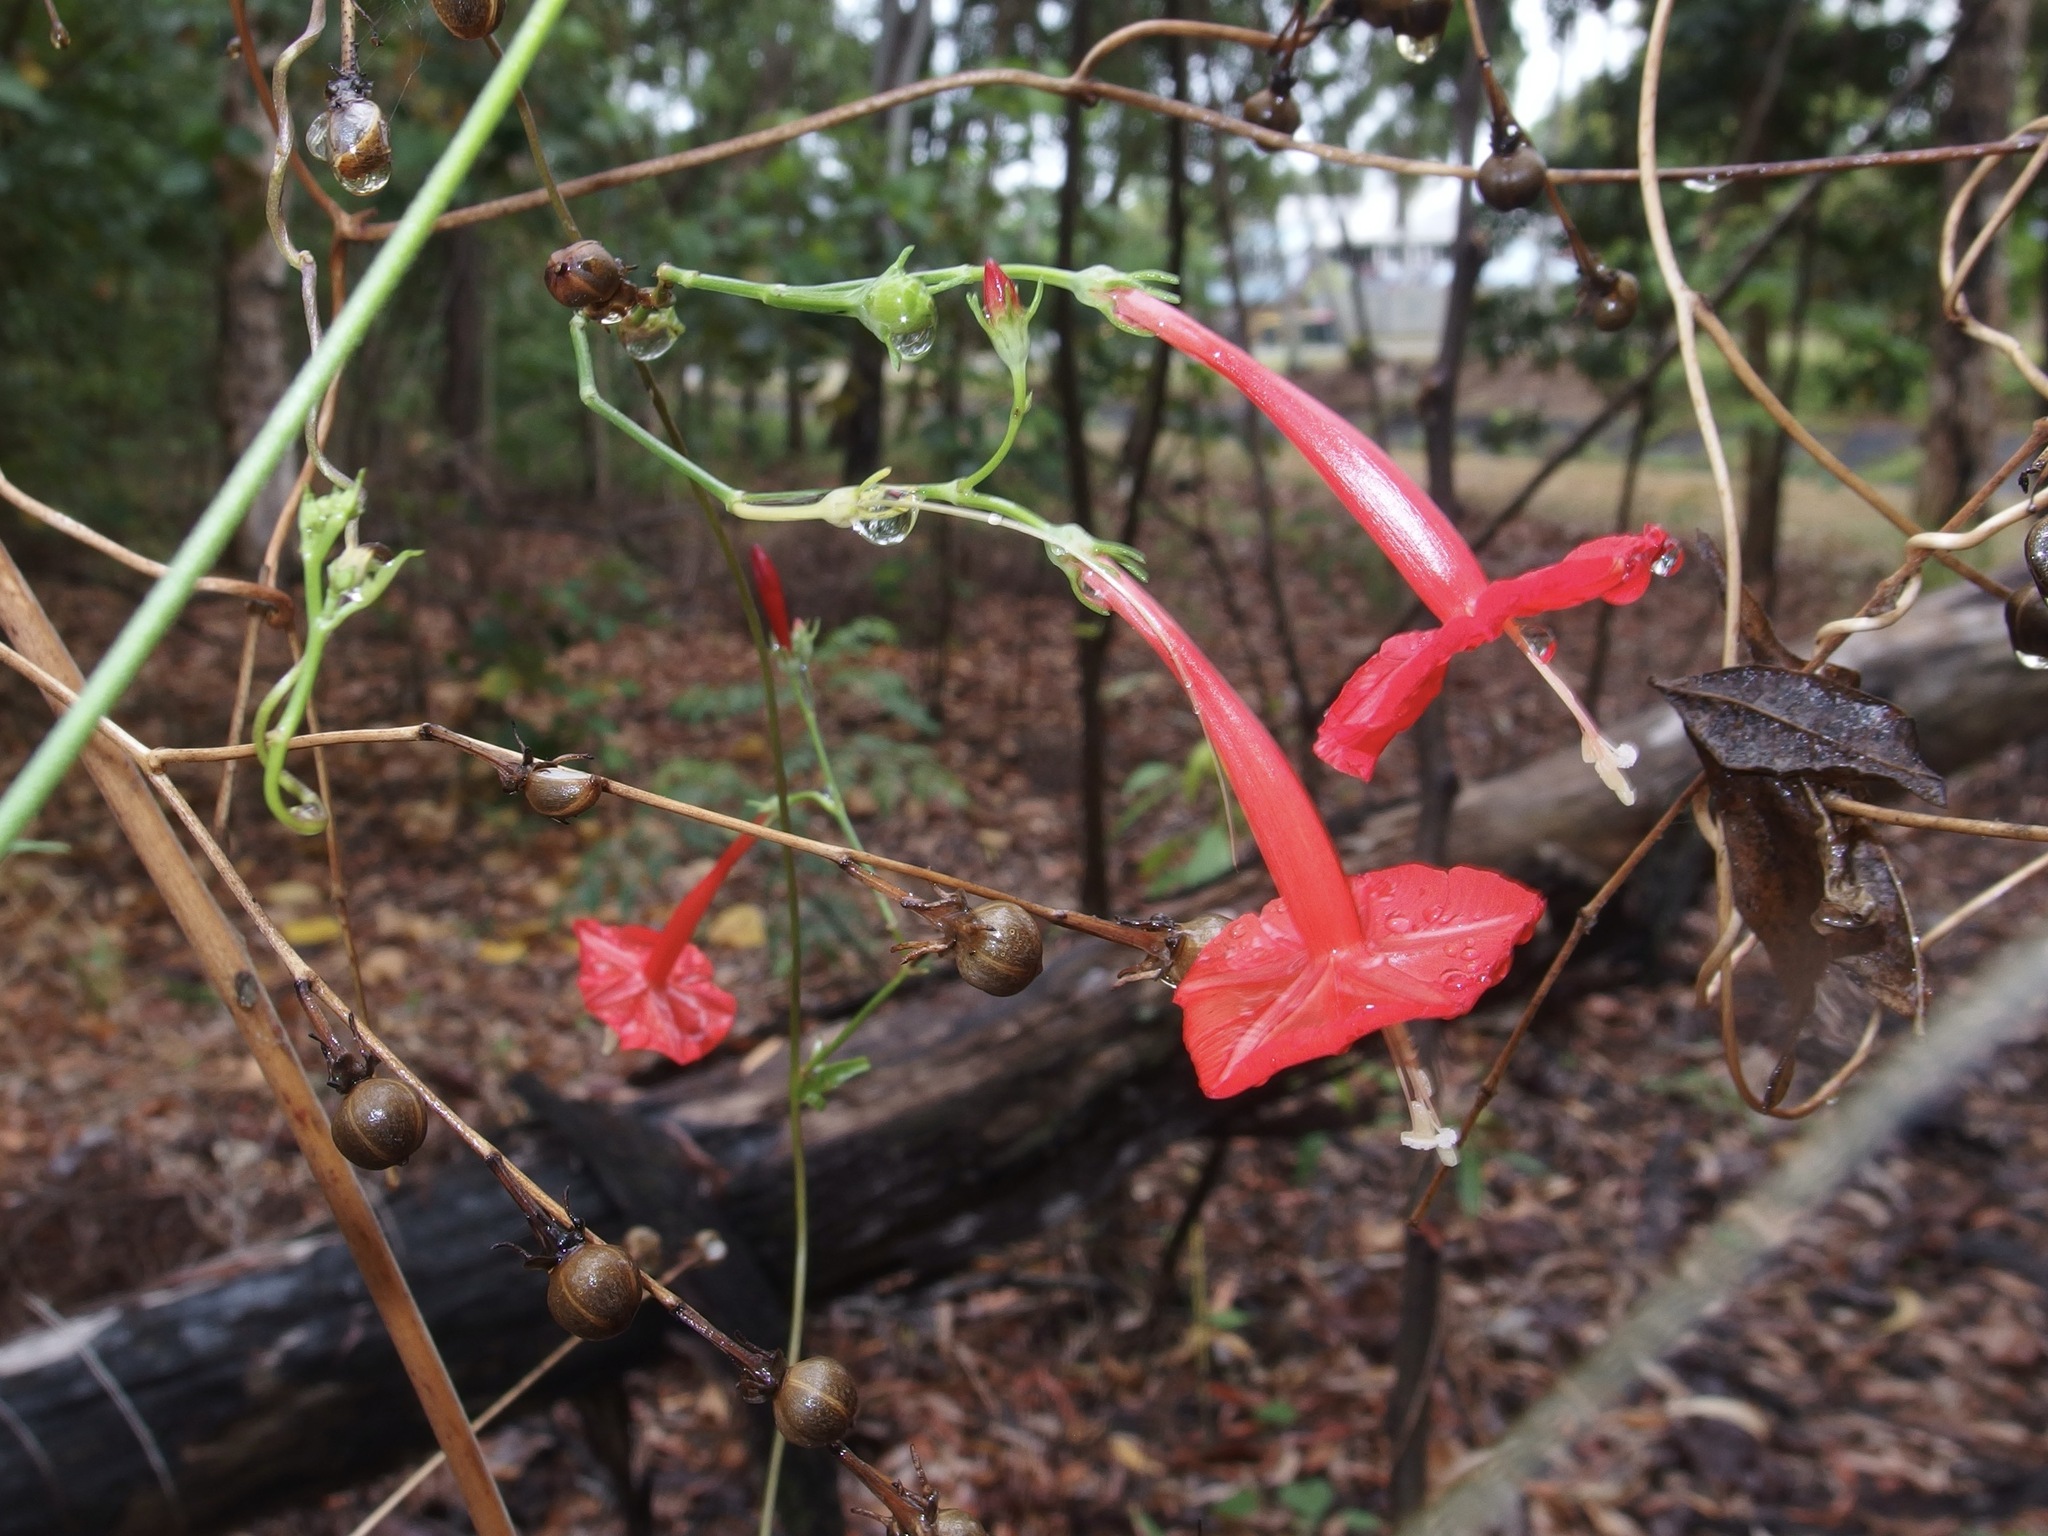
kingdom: Plantae
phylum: Tracheophyta
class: Magnoliopsida
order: Solanales
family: Convolvulaceae
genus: Ipomoea
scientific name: Ipomoea hederifolia
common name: Ivy-leaf morning-glory
